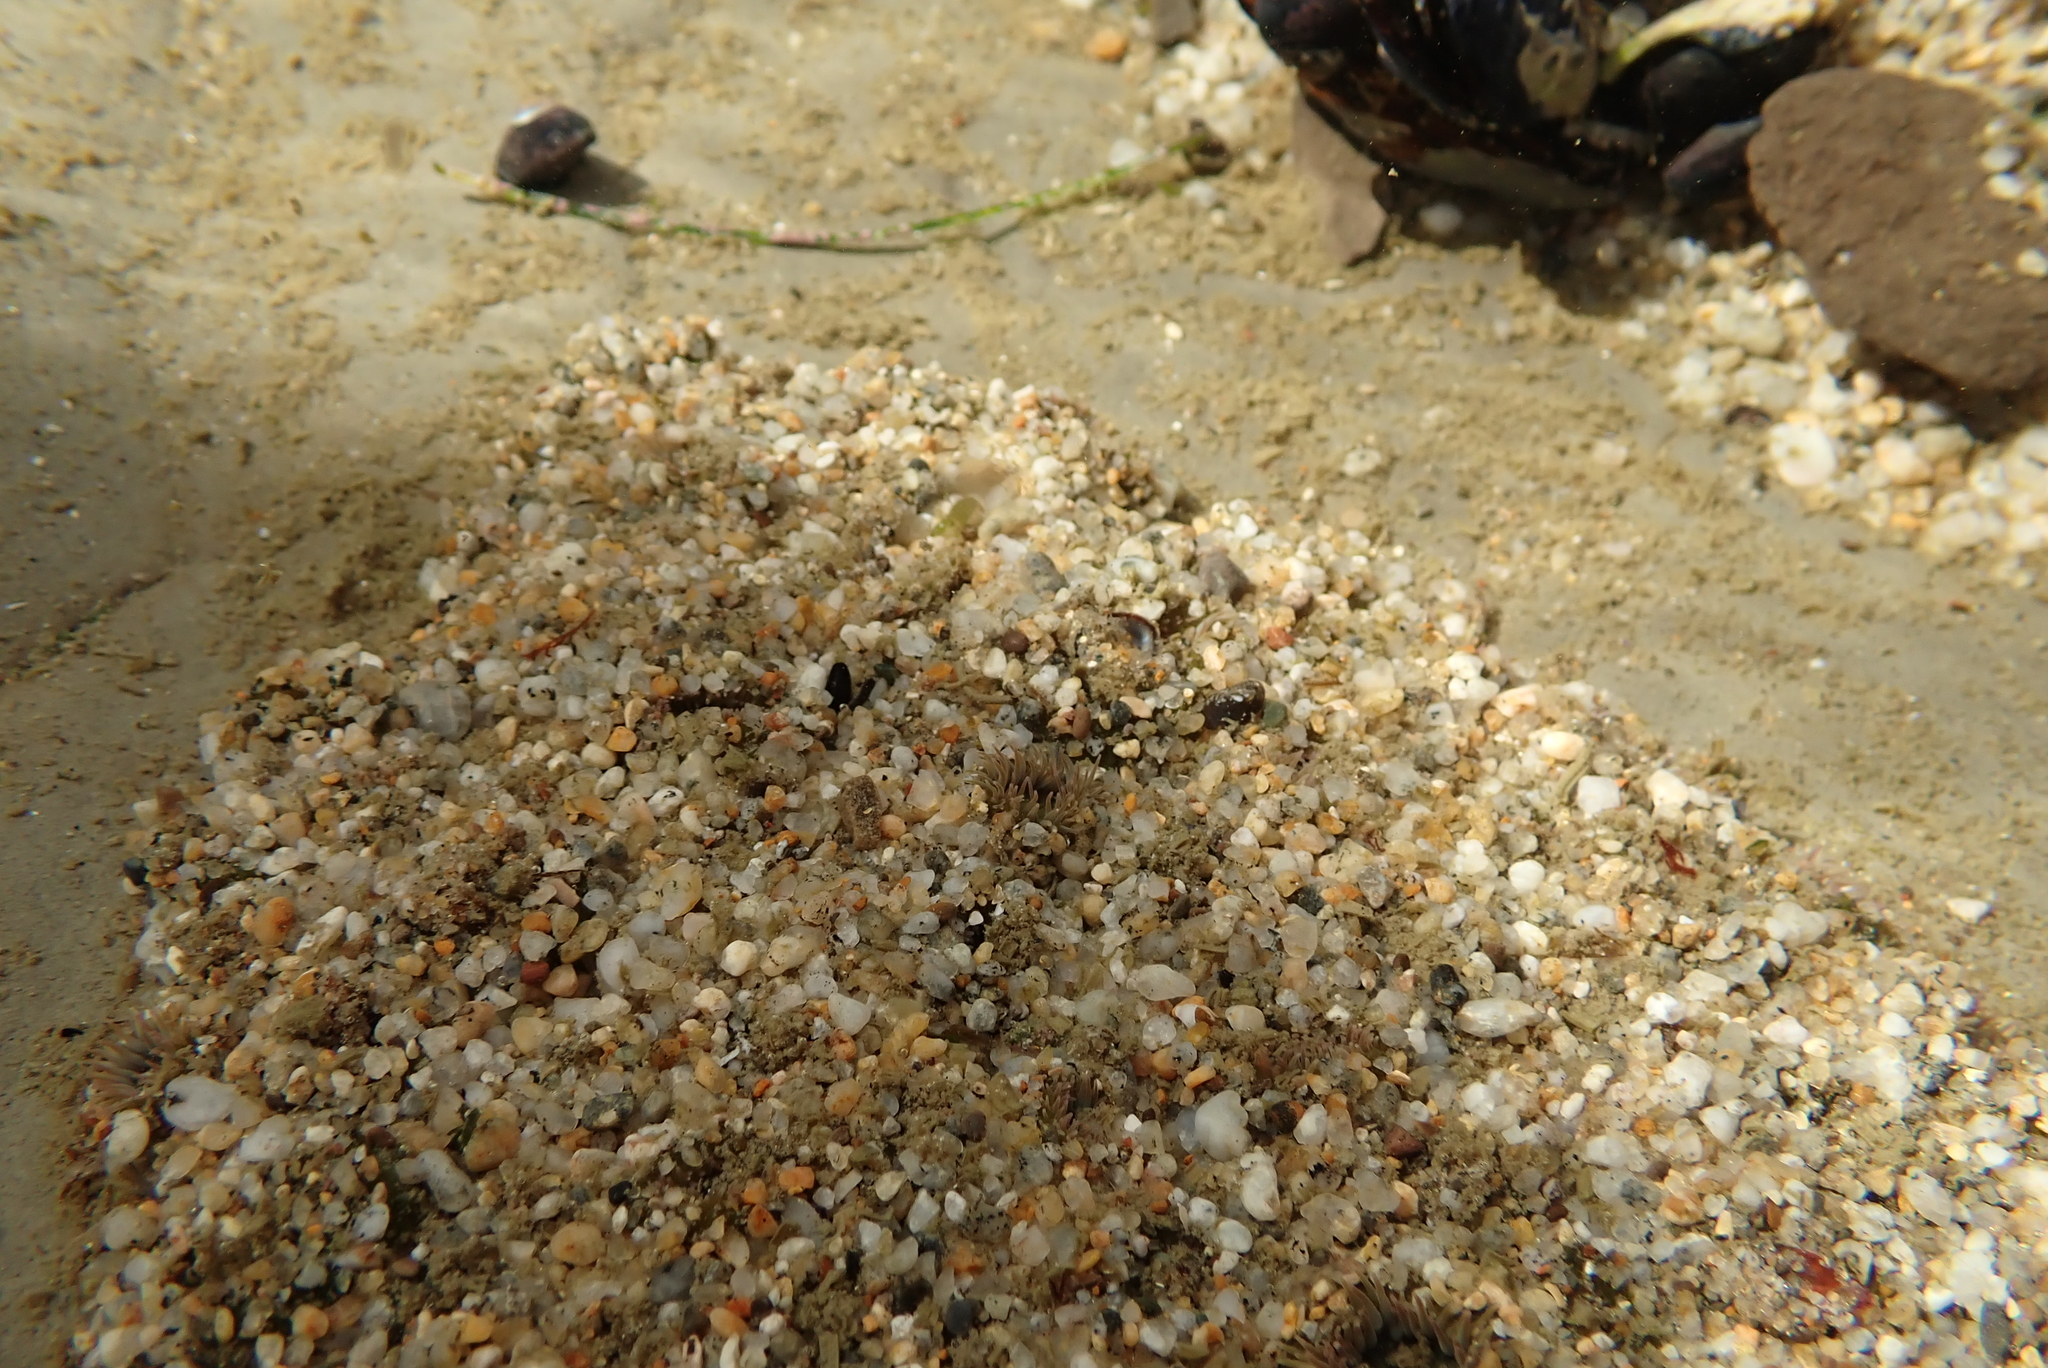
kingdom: Animalia
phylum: Cnidaria
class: Anthozoa
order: Actiniaria
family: Actiniidae
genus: Anthopleura
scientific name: Anthopleura elegantissima
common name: Clonal anemone
